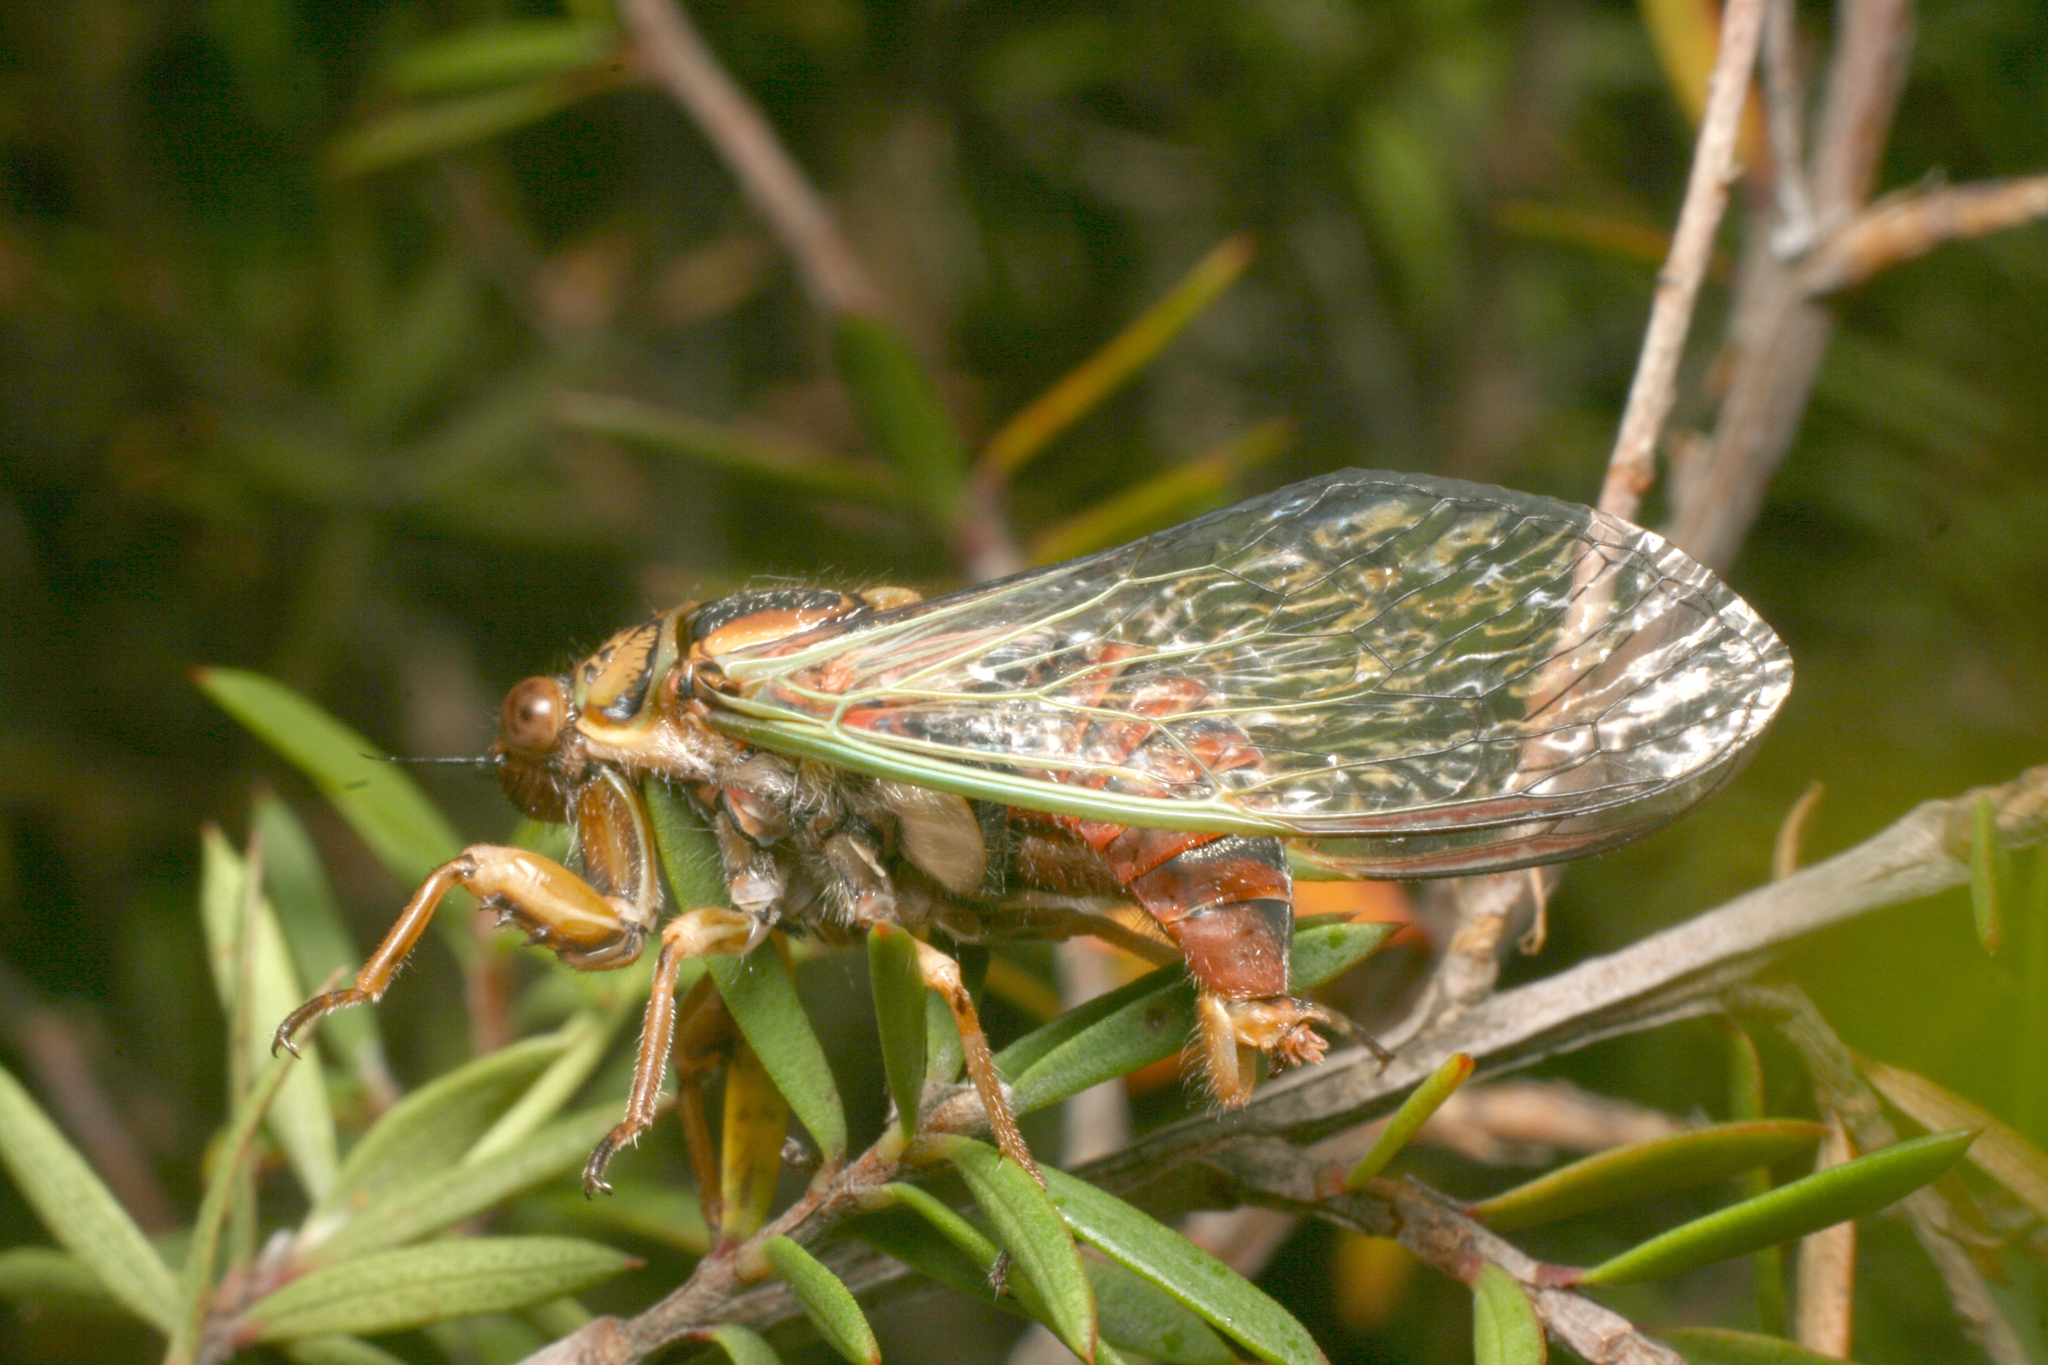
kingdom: Animalia
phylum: Arthropoda
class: Insecta
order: Hemiptera
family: Cicadidae
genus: Rhodopsalta
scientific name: Rhodopsalta cruentata
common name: Blood redtail cicada
